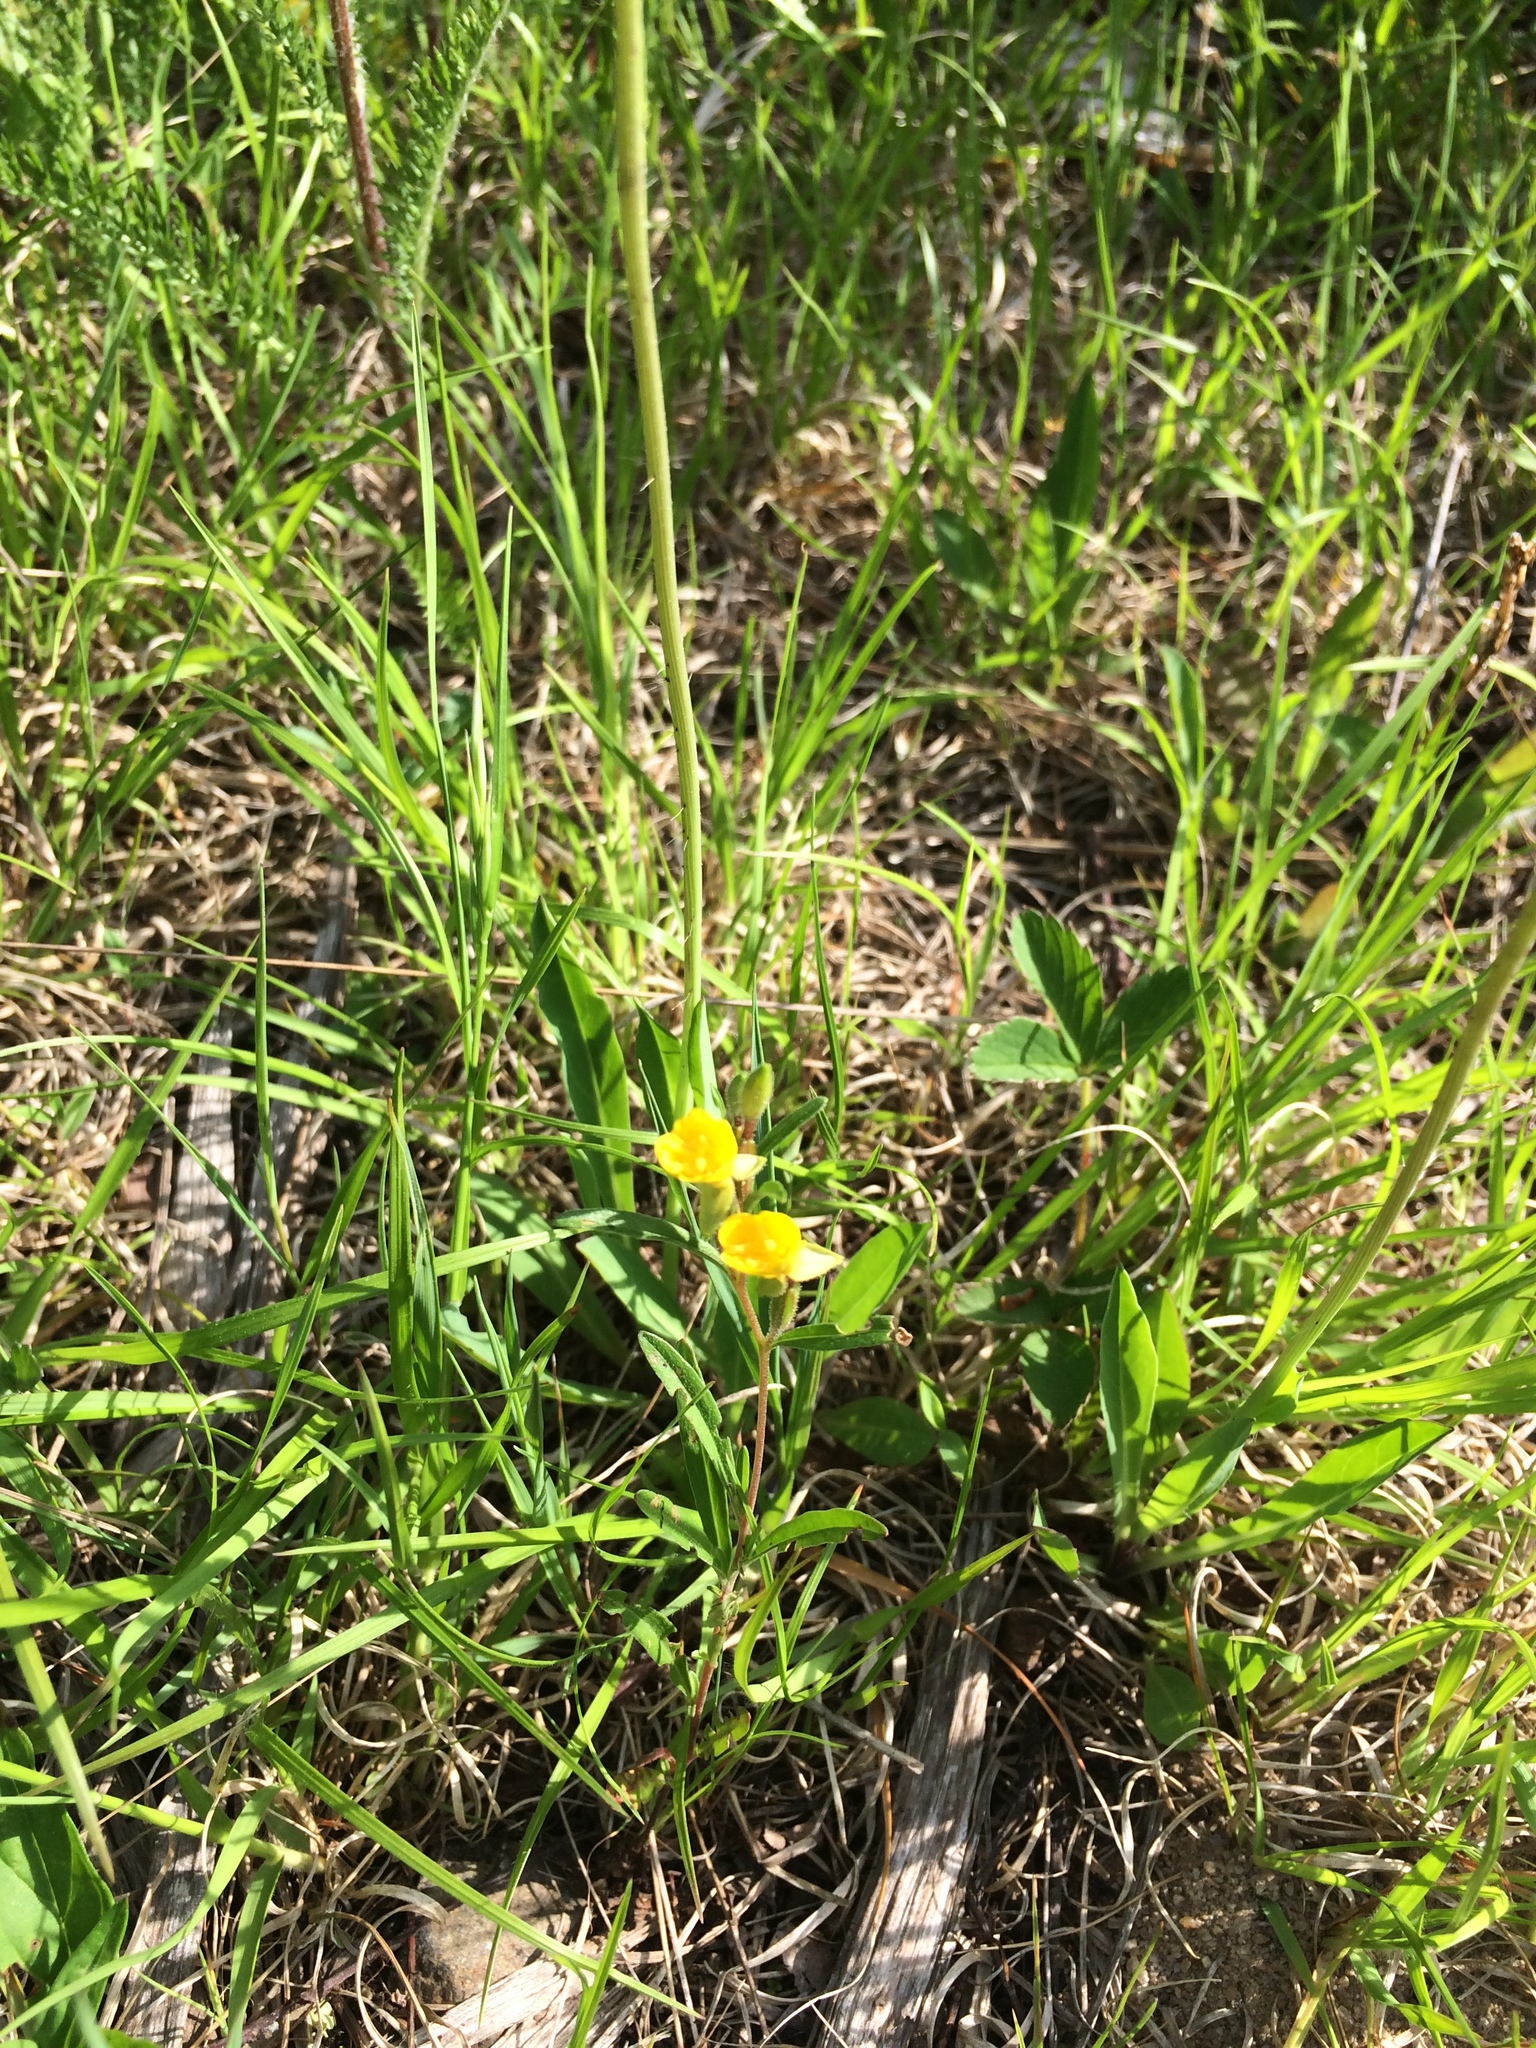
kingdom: Plantae
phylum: Tracheophyta
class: Magnoliopsida
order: Myrtales
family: Onagraceae
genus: Oenothera
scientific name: Oenothera perennis
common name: Small sundrops
